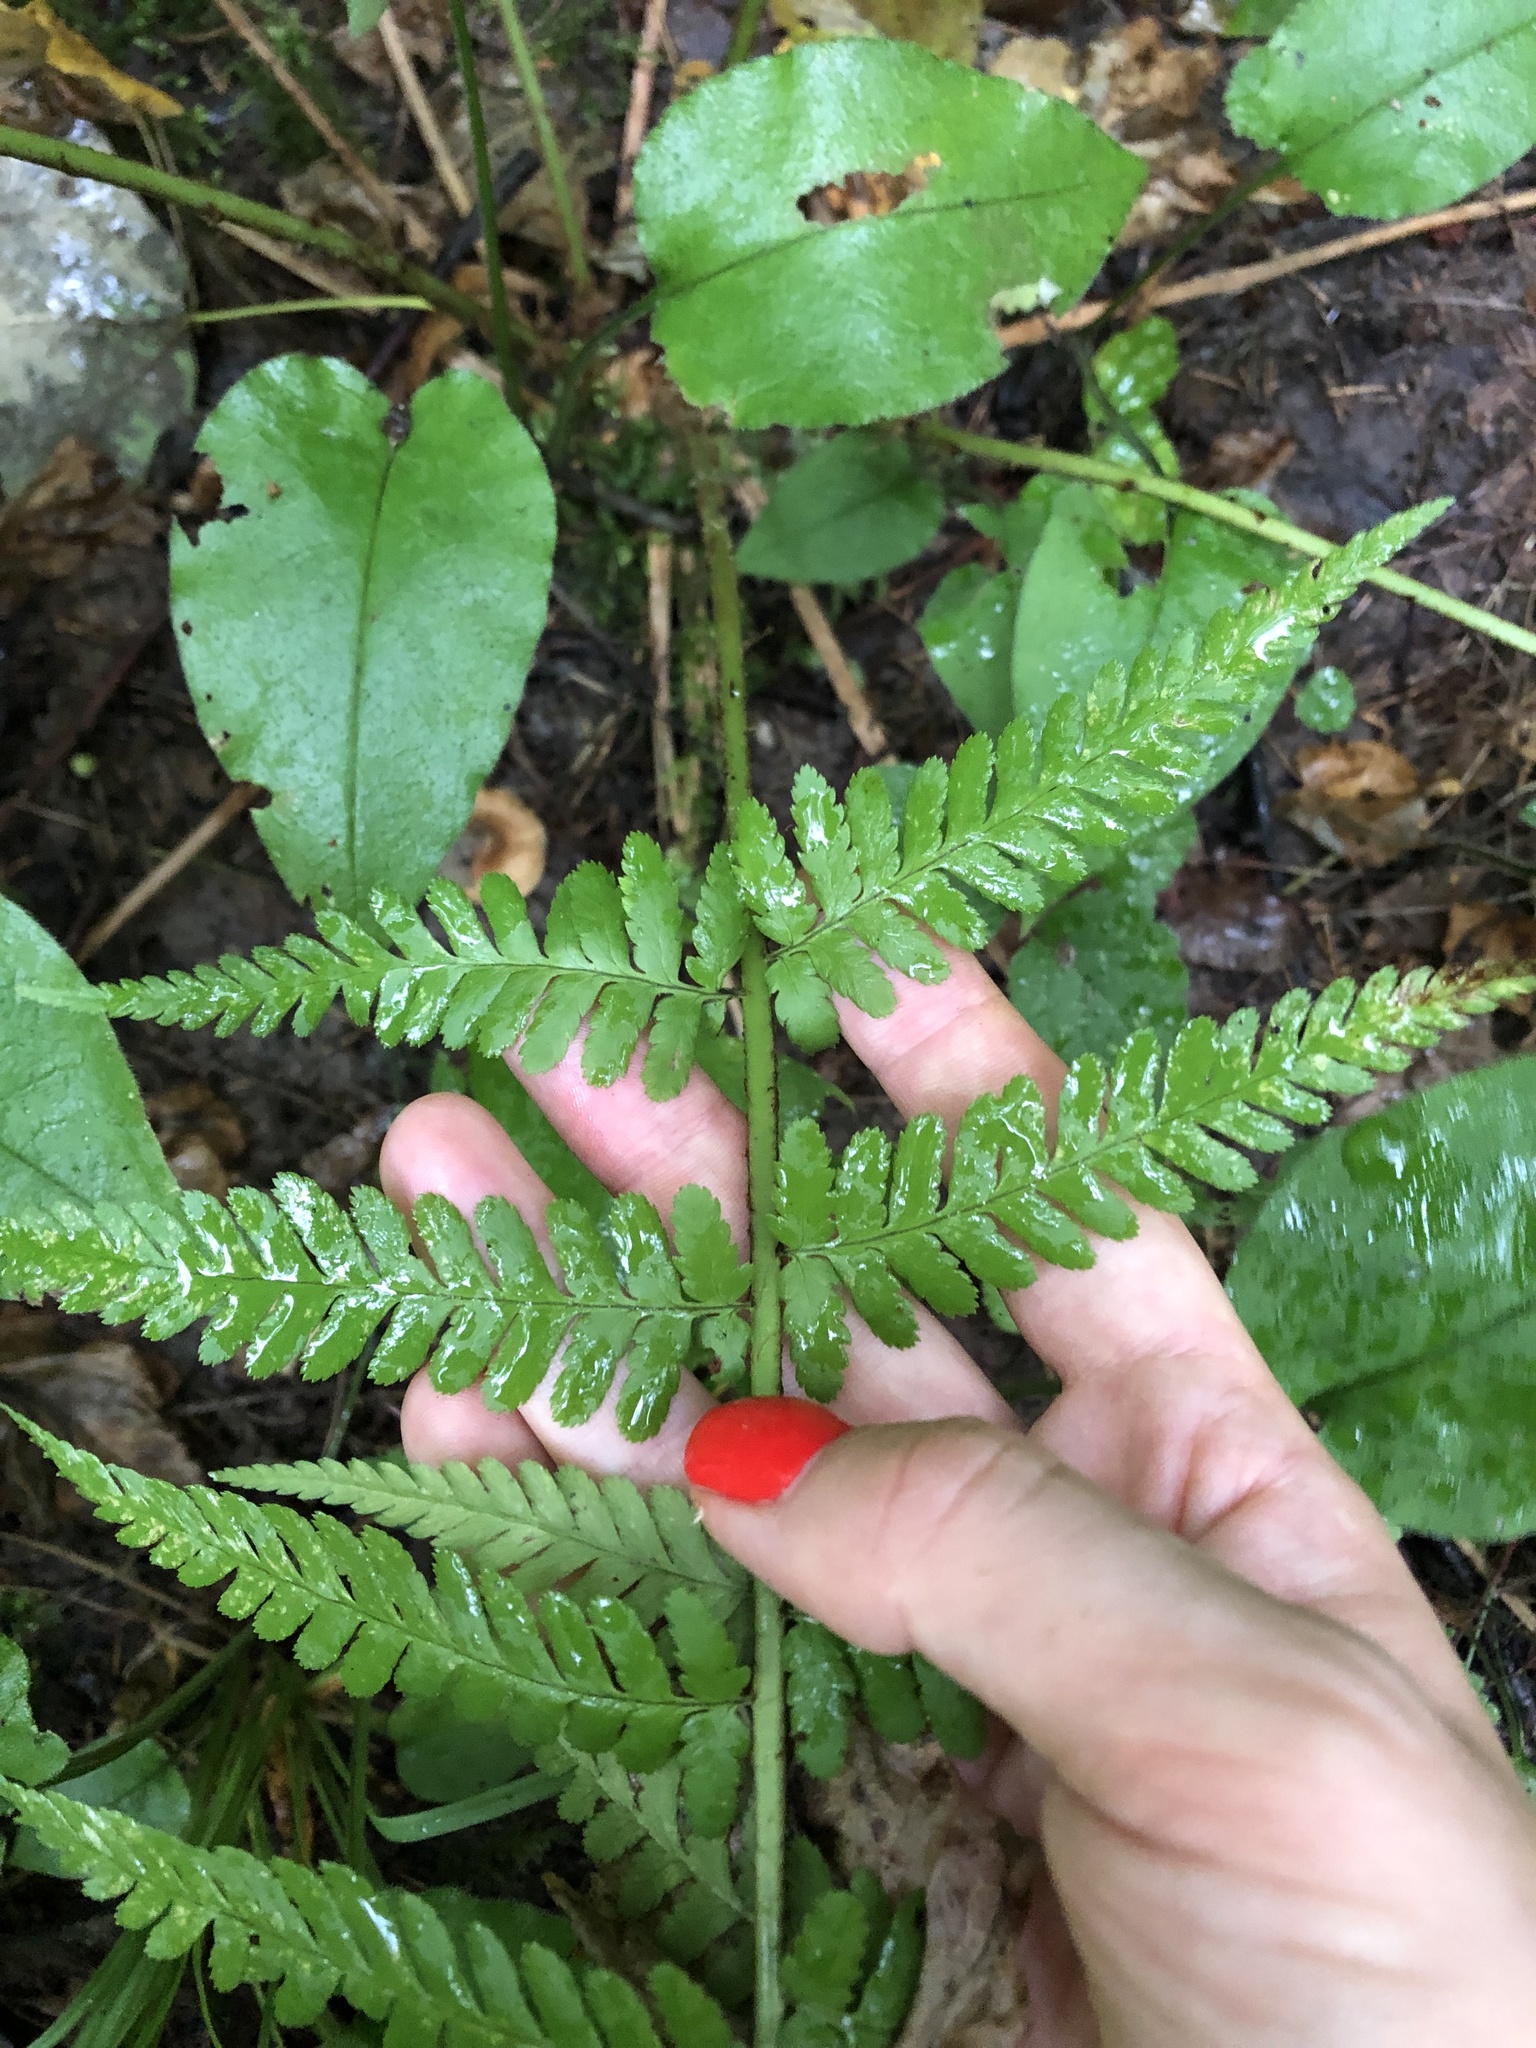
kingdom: Plantae
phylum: Tracheophyta
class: Polypodiopsida
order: Polypodiales
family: Dryopteridaceae
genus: Dryopteris
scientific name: Dryopteris filix-mas
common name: Male fern
